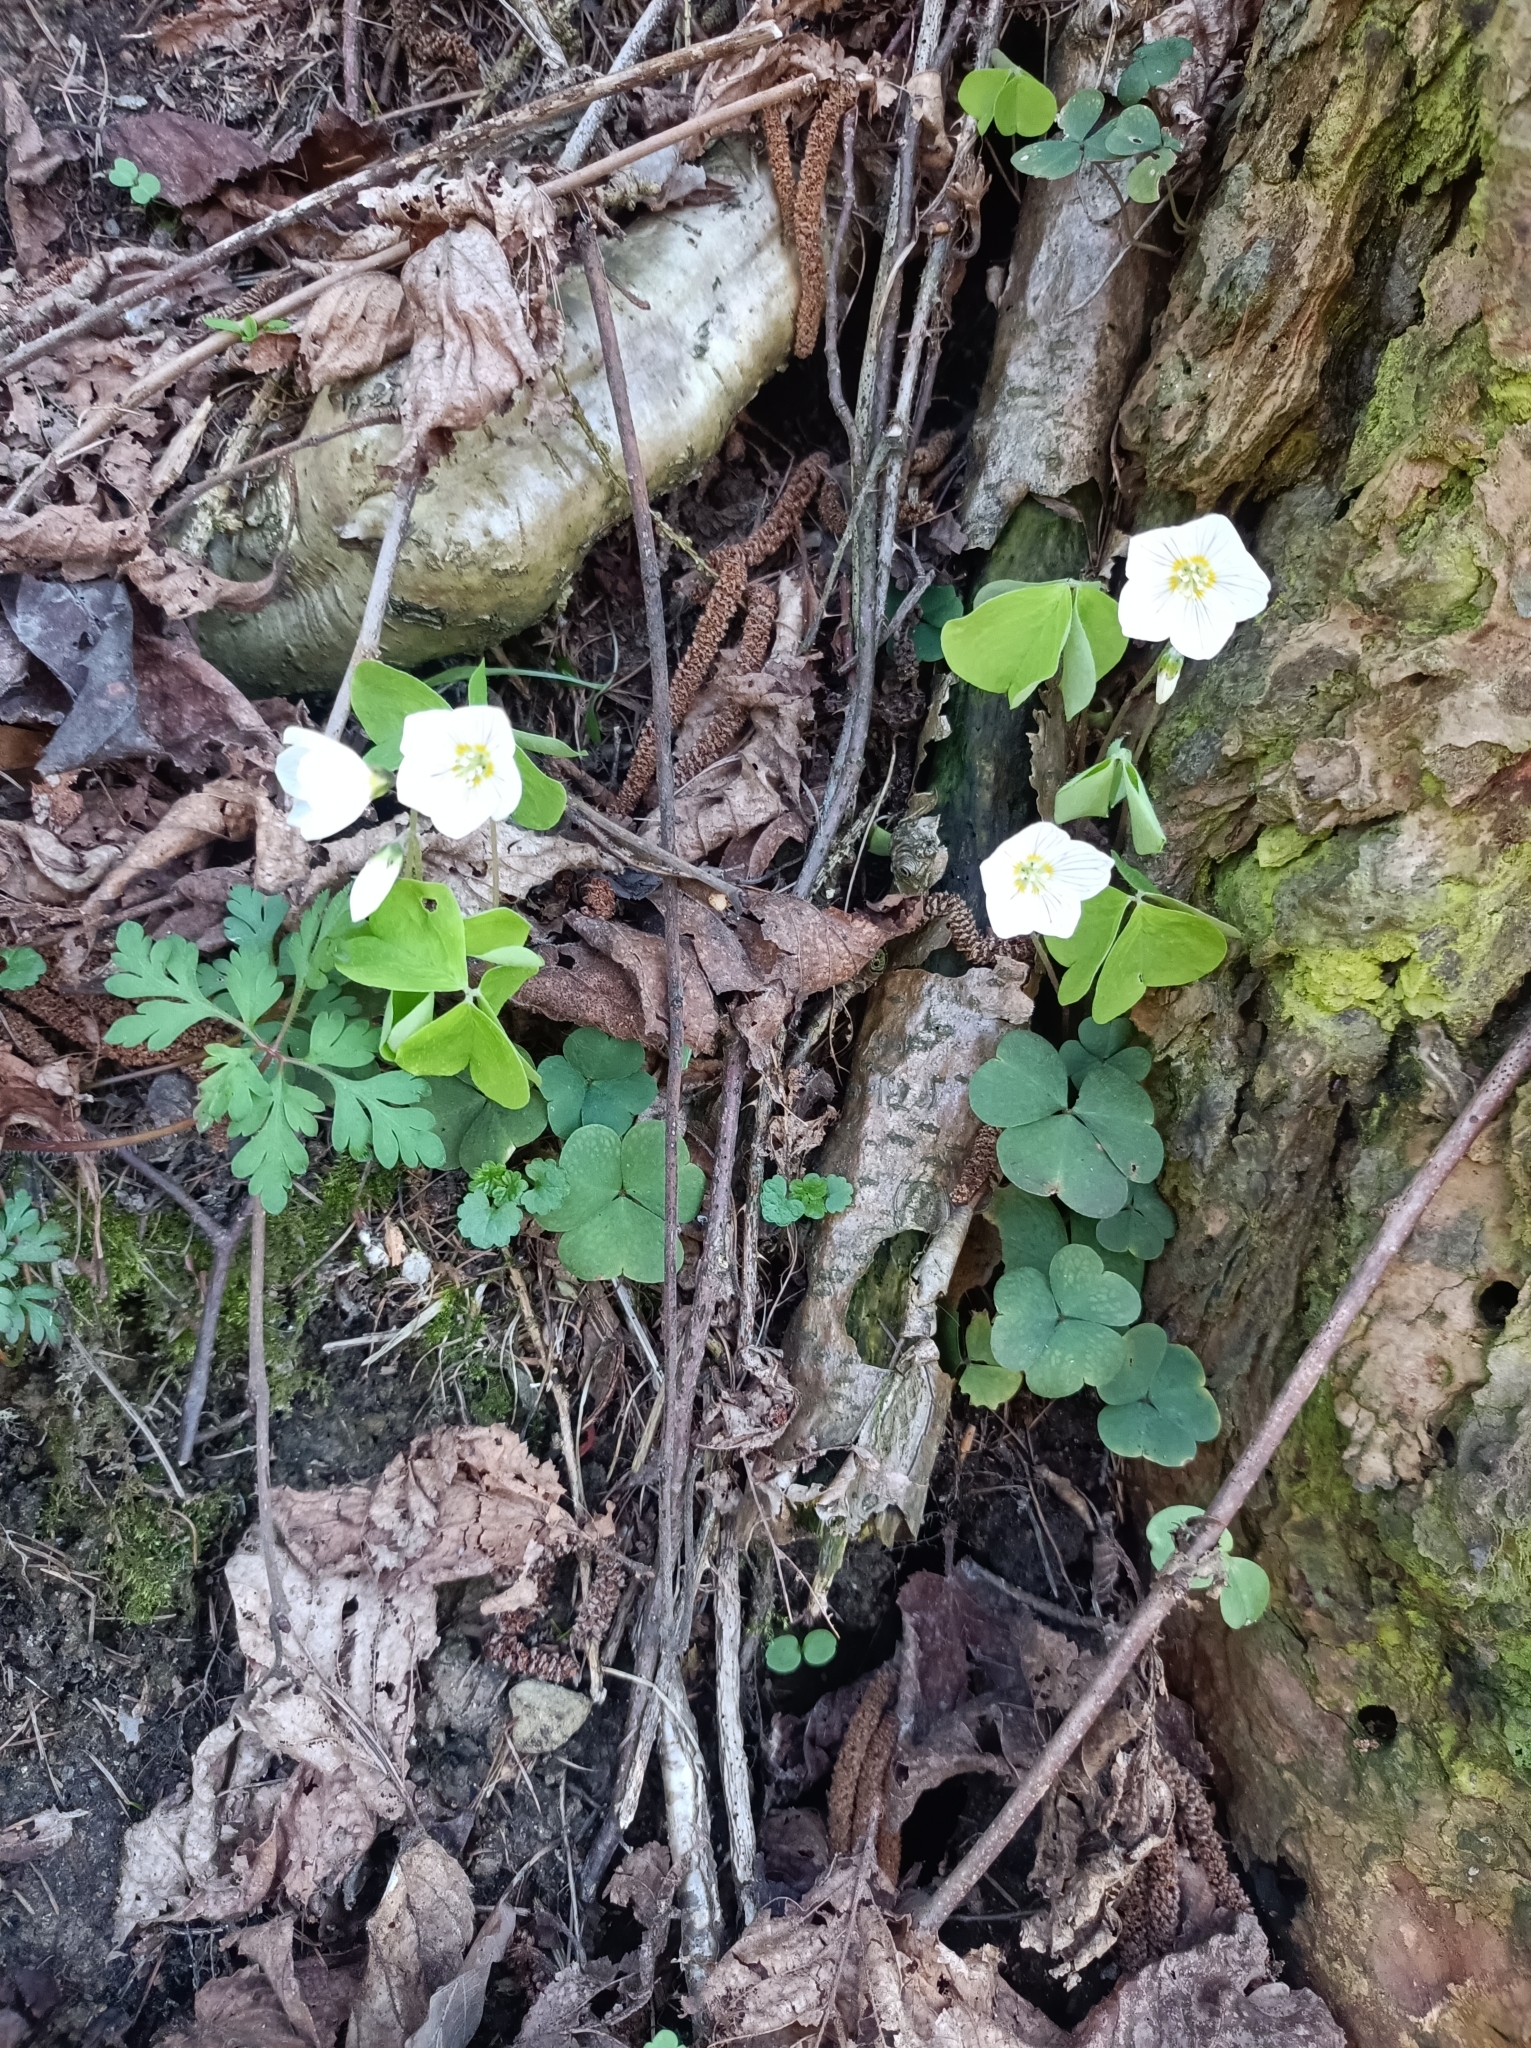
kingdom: Plantae
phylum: Tracheophyta
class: Magnoliopsida
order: Oxalidales
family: Oxalidaceae
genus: Oxalis
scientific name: Oxalis acetosella
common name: Wood-sorrel
